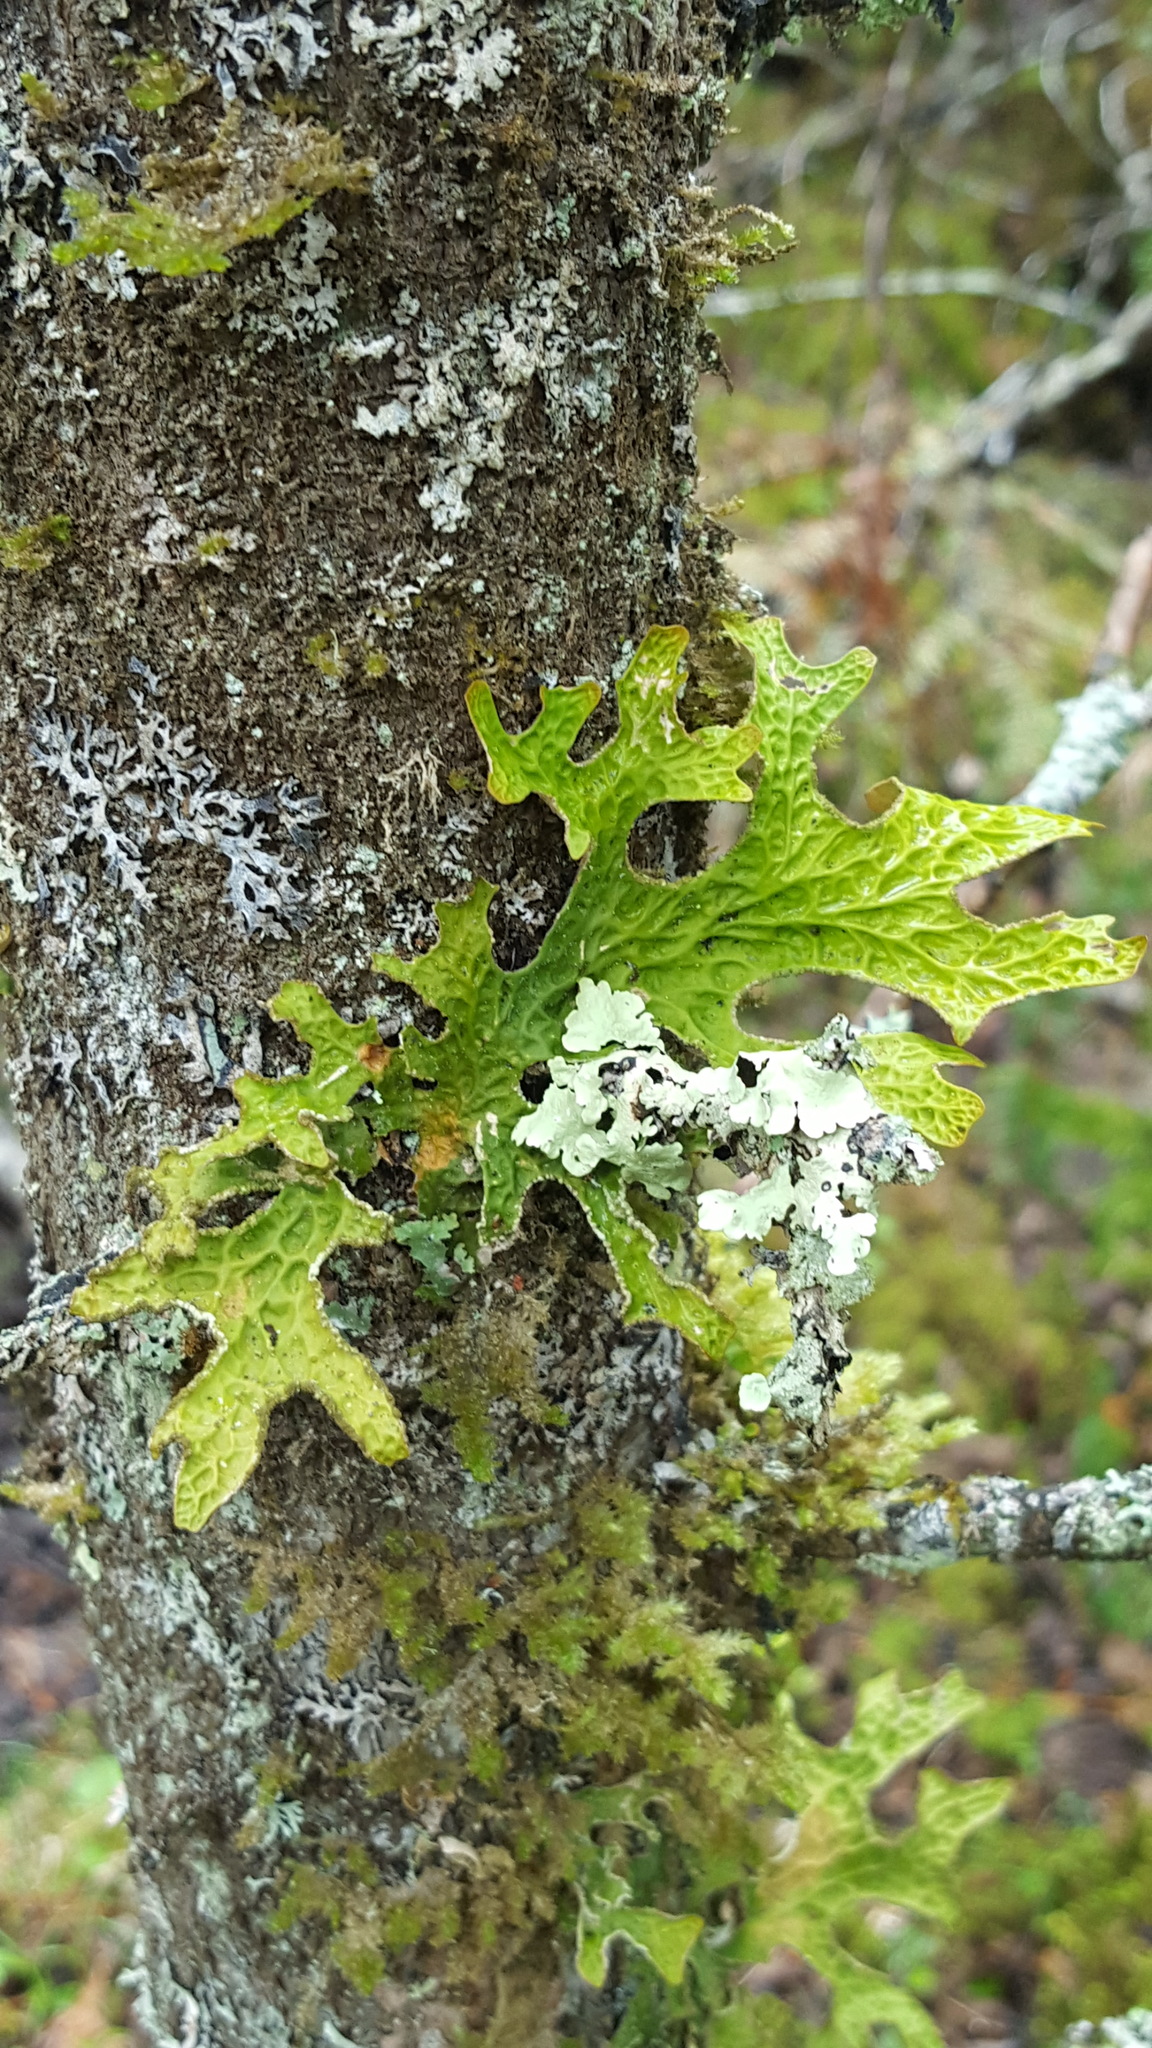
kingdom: Fungi
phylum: Ascomycota
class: Lecanoromycetes
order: Peltigerales
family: Lobariaceae
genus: Lobaria
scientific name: Lobaria pulmonaria
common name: Lungwort
